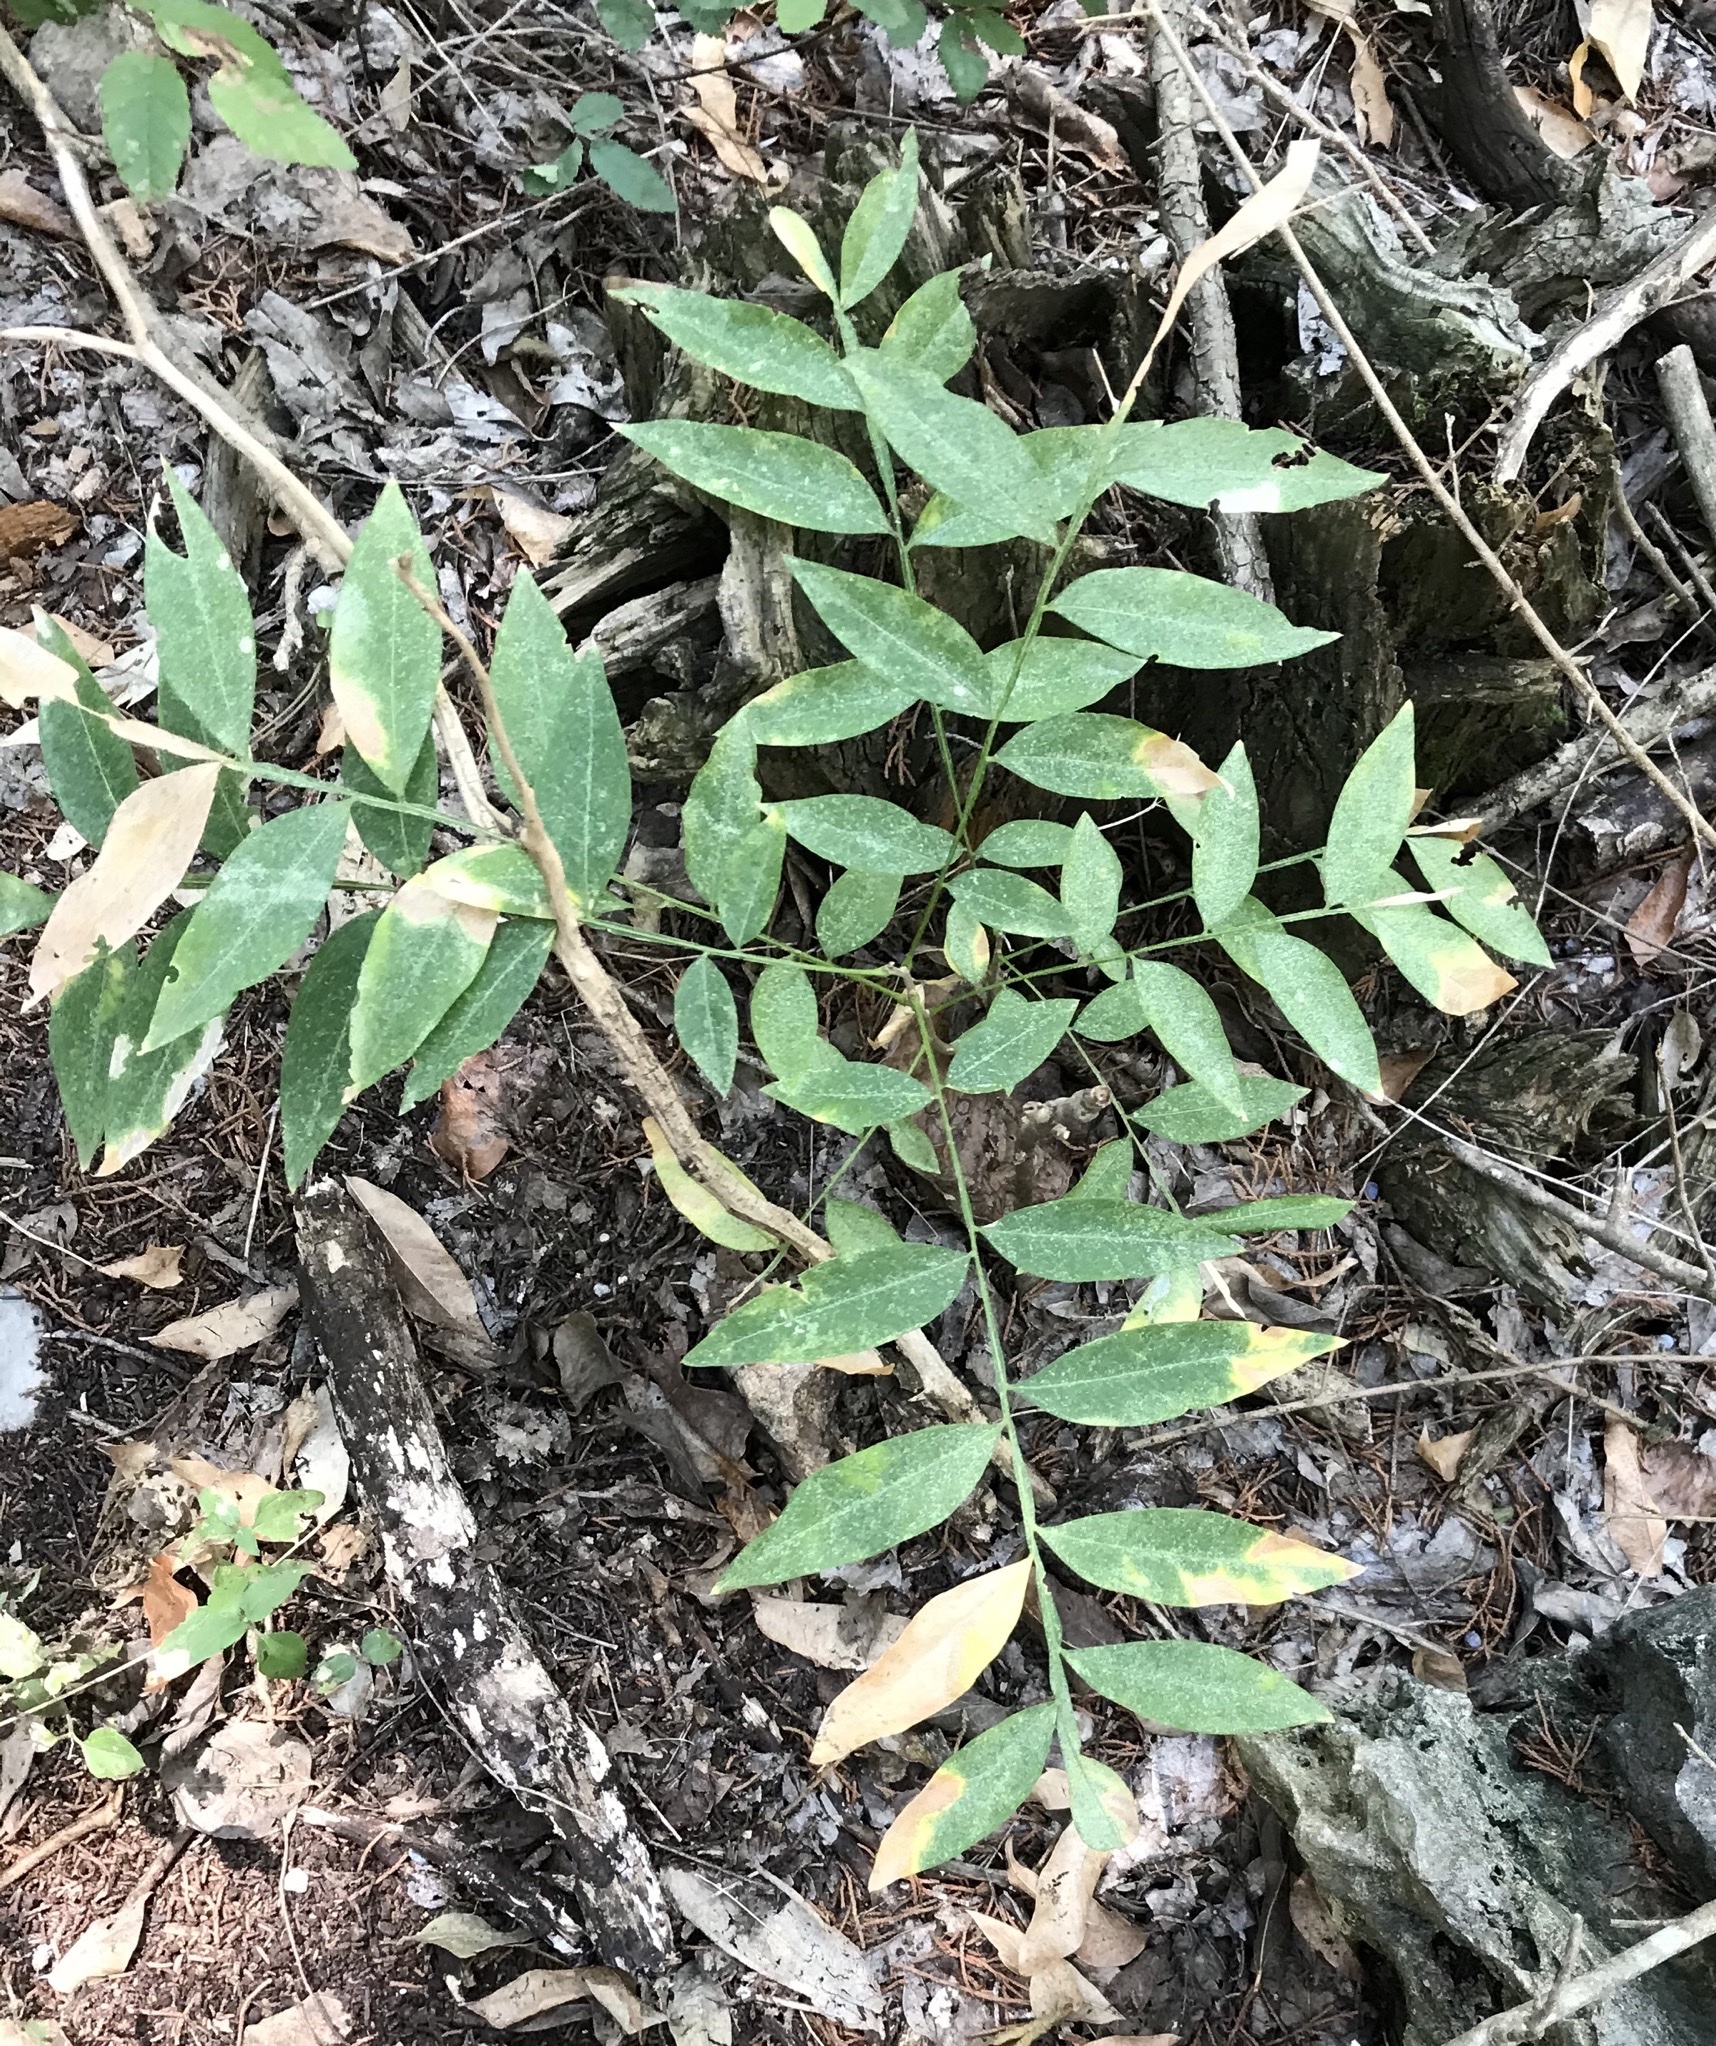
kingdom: Plantae
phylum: Tracheophyta
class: Magnoliopsida
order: Sapindales
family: Sapindaceae
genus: Sapindus
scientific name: Sapindus drummondii
